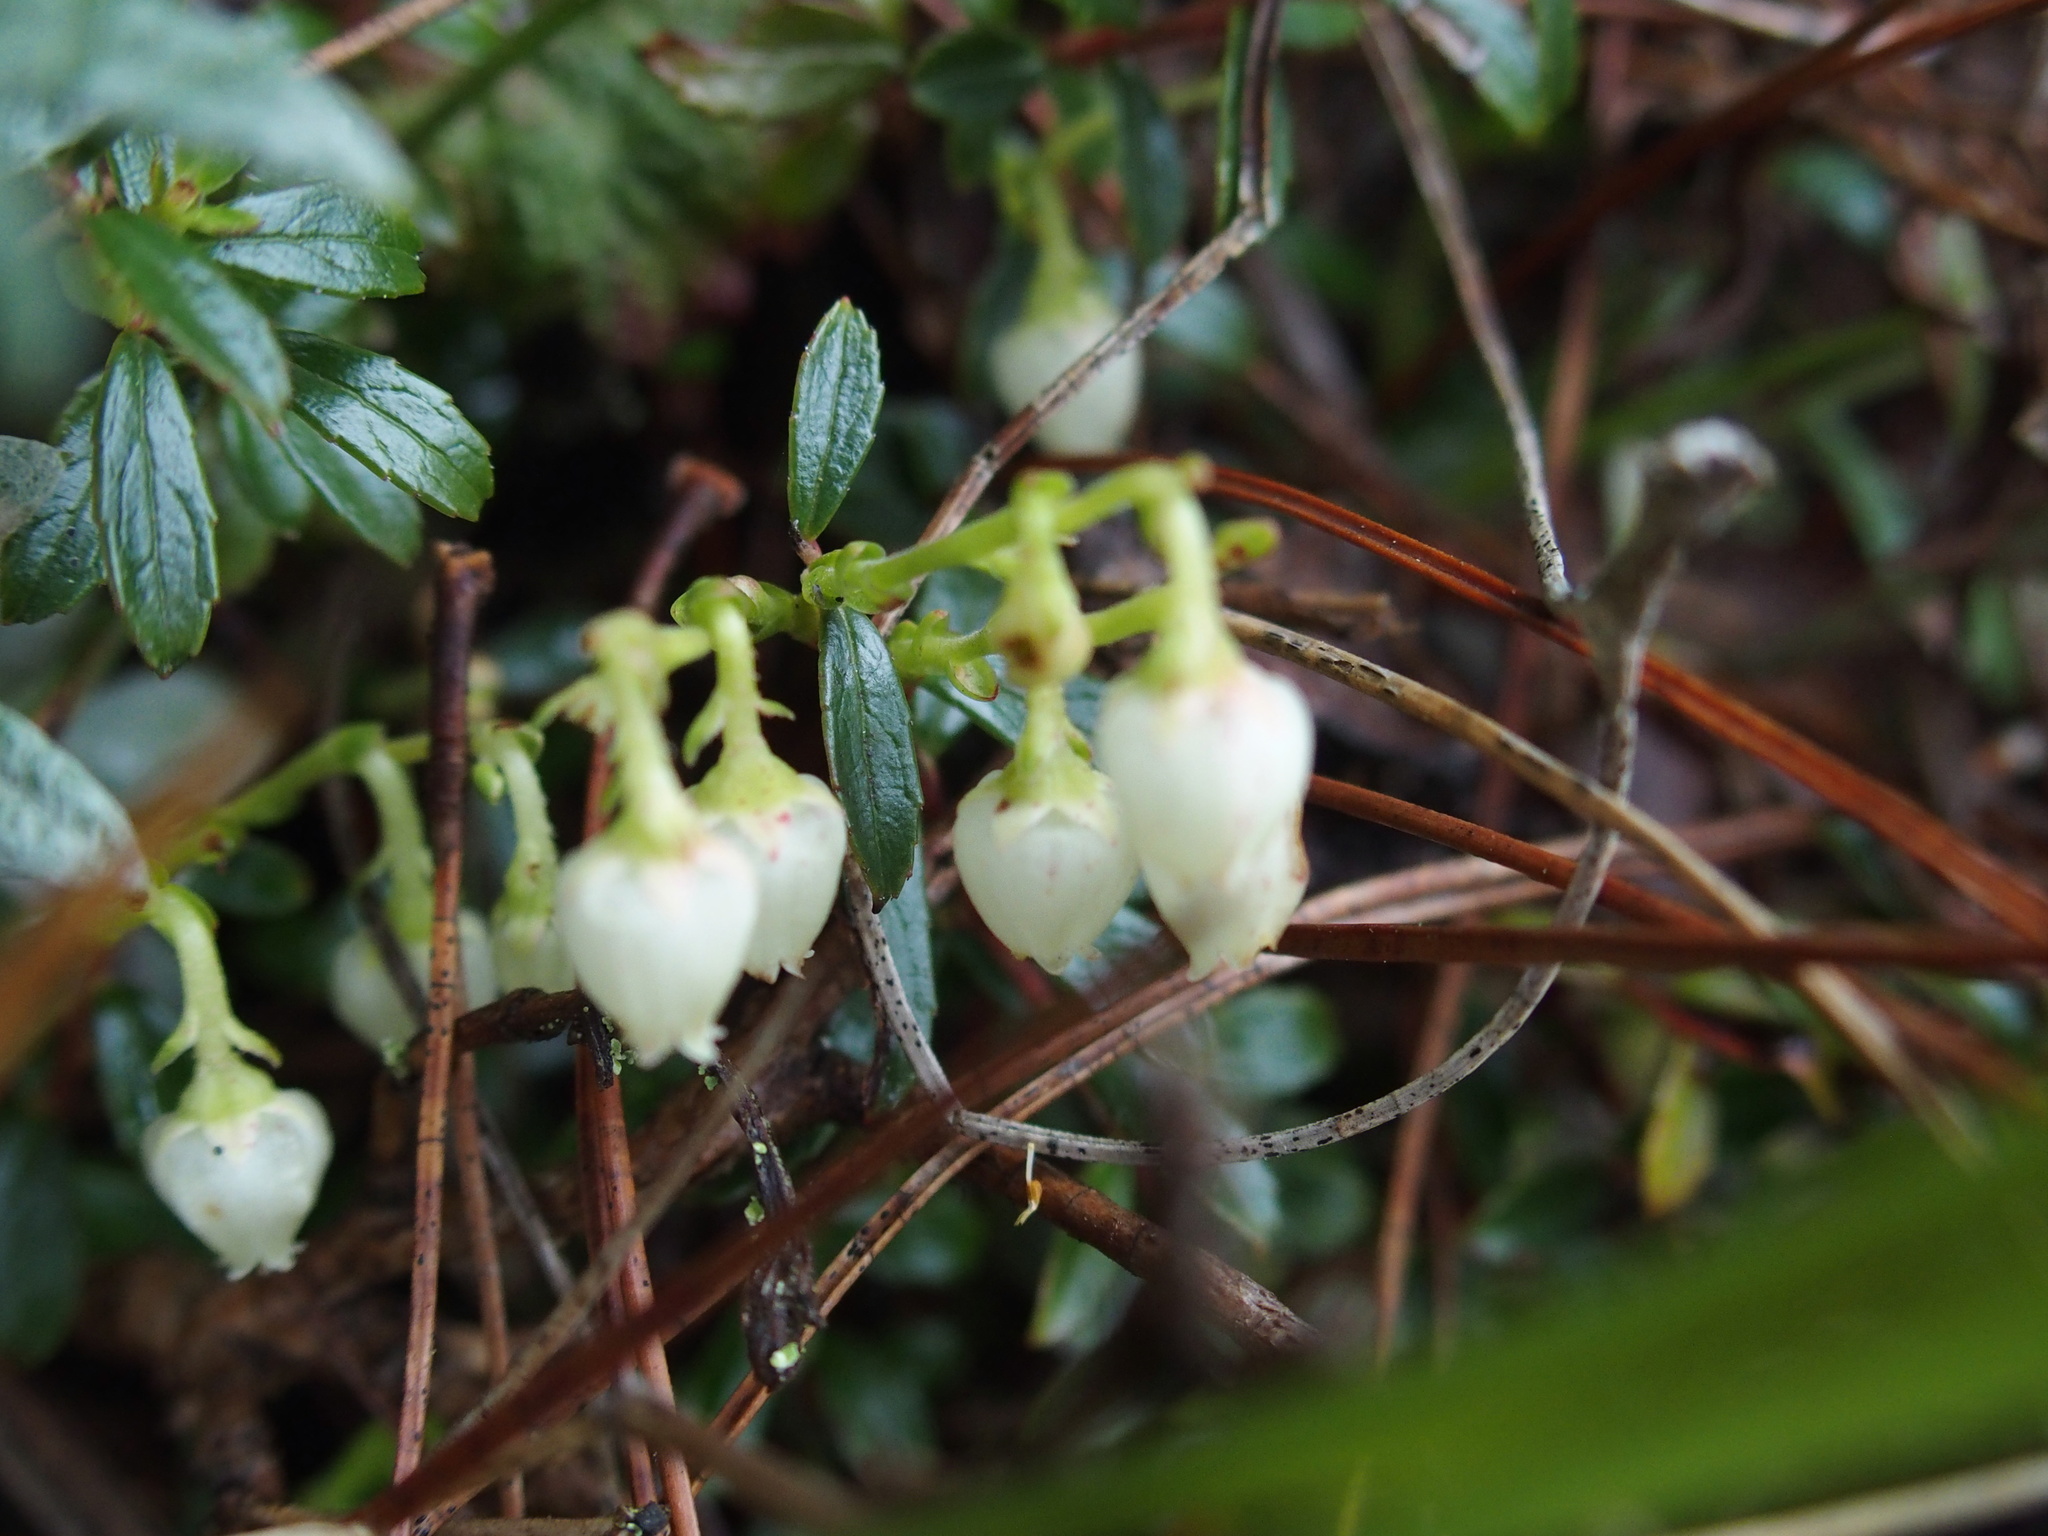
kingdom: Plantae
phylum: Tracheophyta
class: Magnoliopsida
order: Ericales
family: Ericaceae
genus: Gaultheria
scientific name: Gaultheria borneensis
